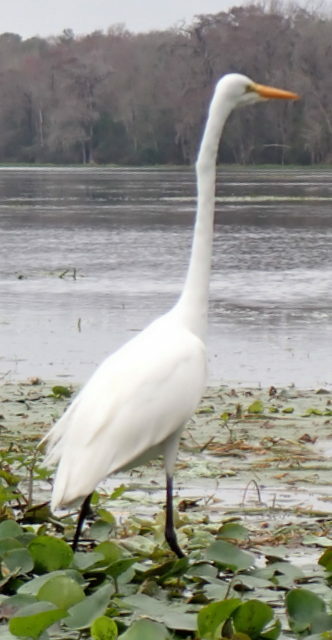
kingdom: Animalia
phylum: Chordata
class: Aves
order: Pelecaniformes
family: Ardeidae
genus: Ardea
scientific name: Ardea alba
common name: Great egret
